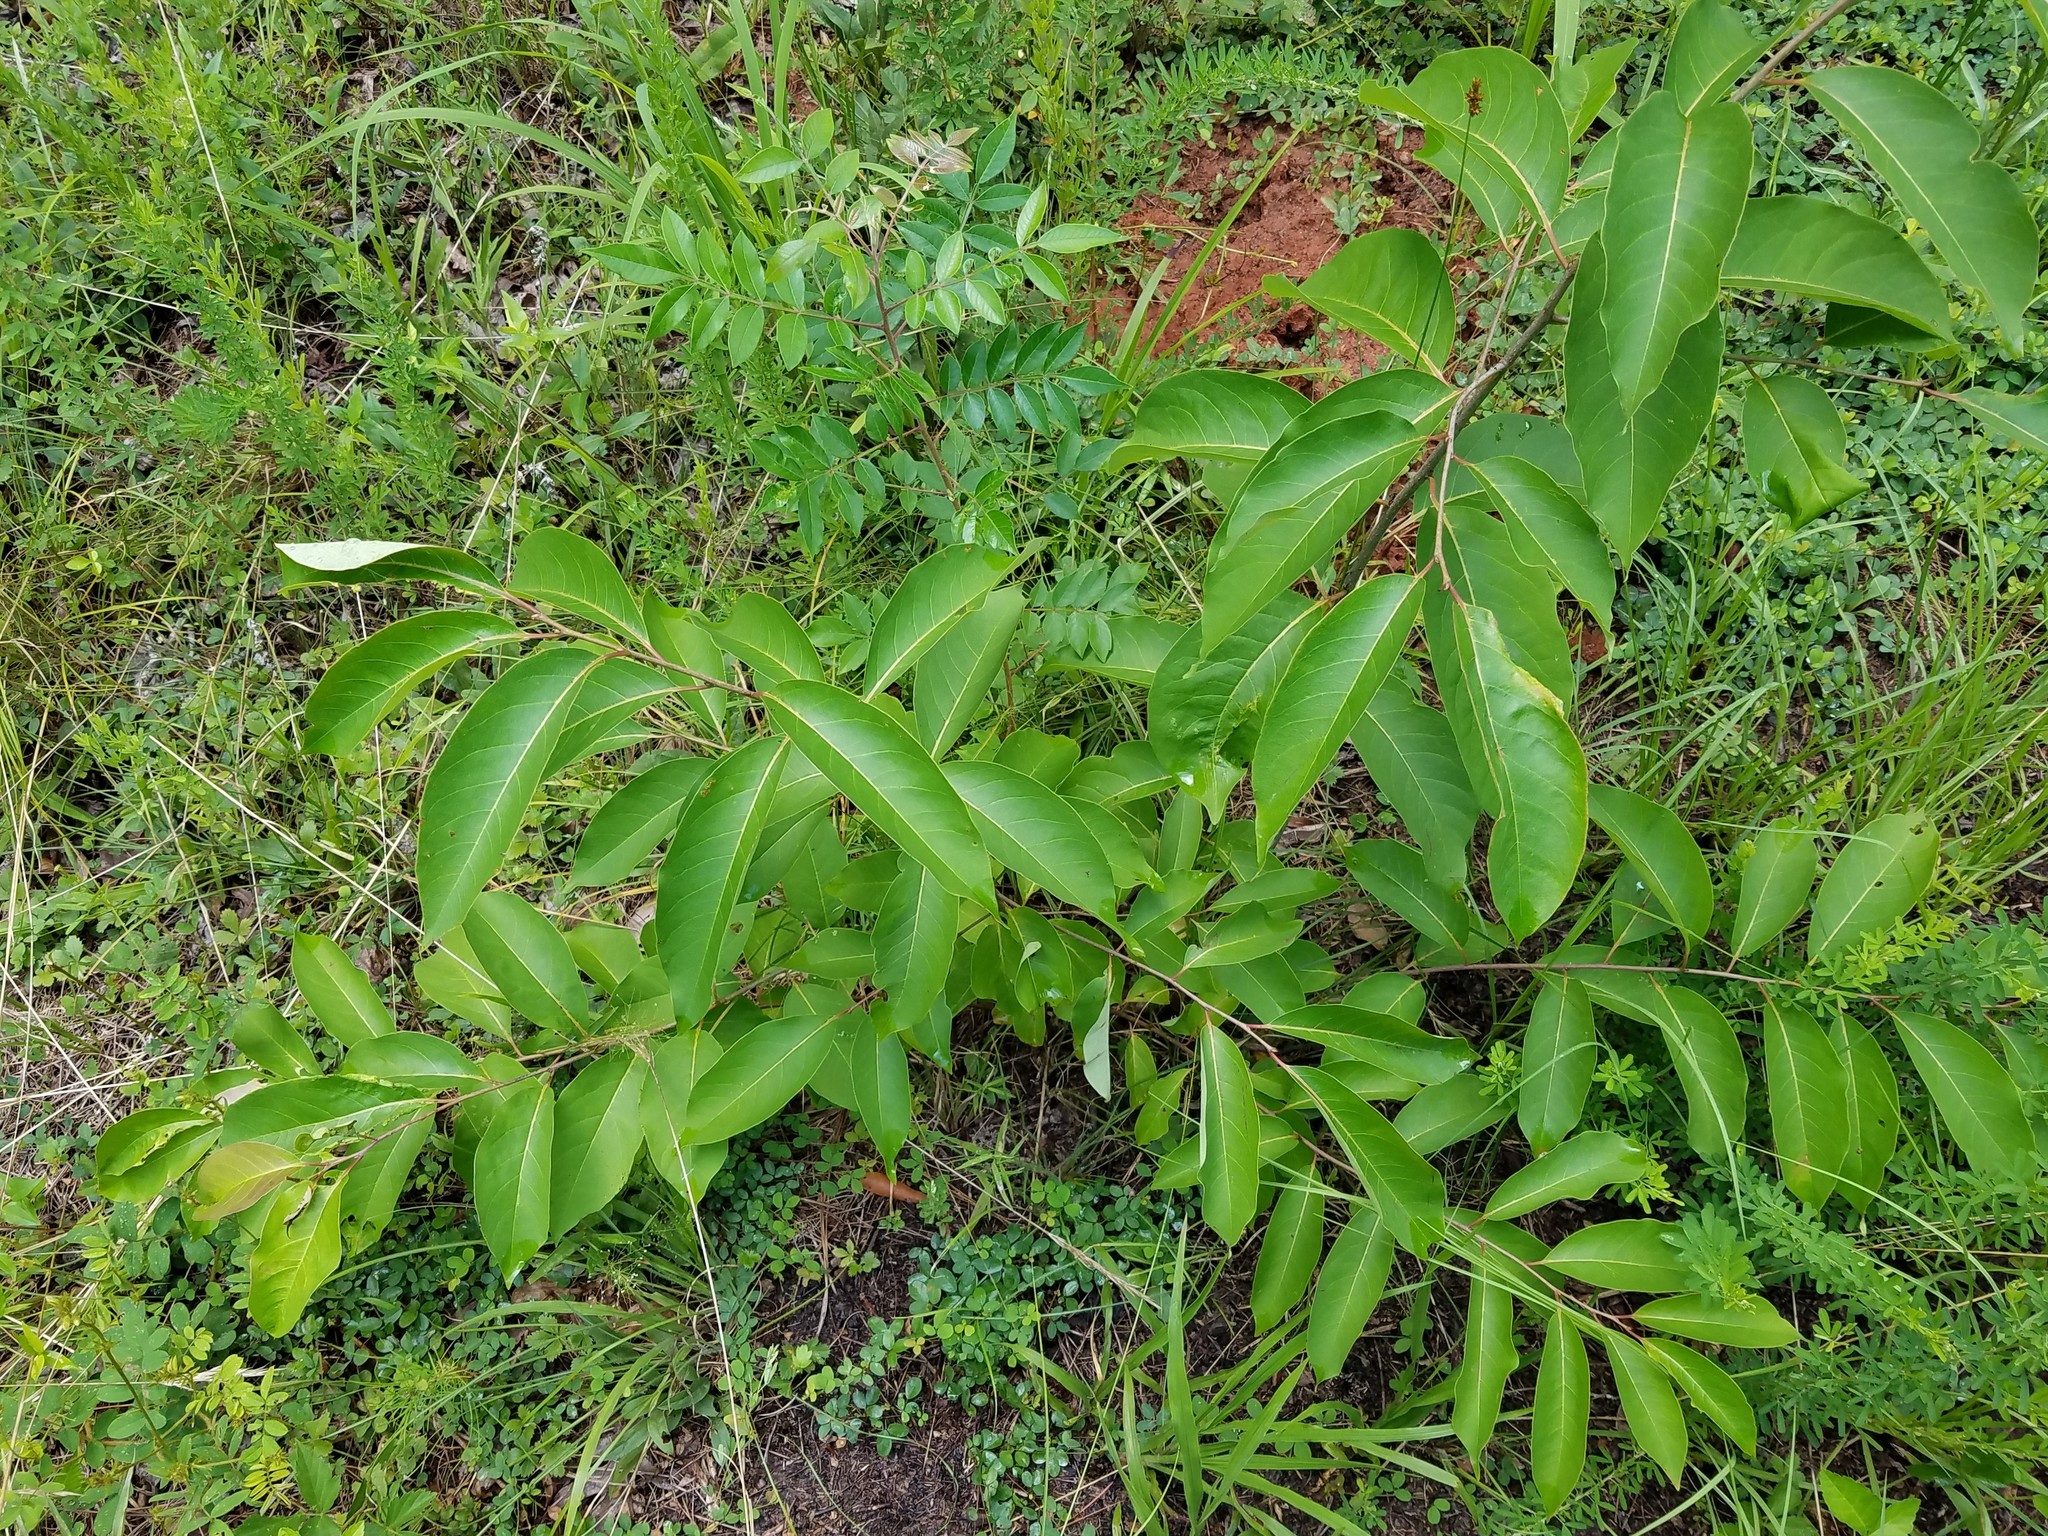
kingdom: Plantae
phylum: Tracheophyta
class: Magnoliopsida
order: Ericales
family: Ebenaceae
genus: Diospyros
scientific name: Diospyros virginiana
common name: Persimmon
